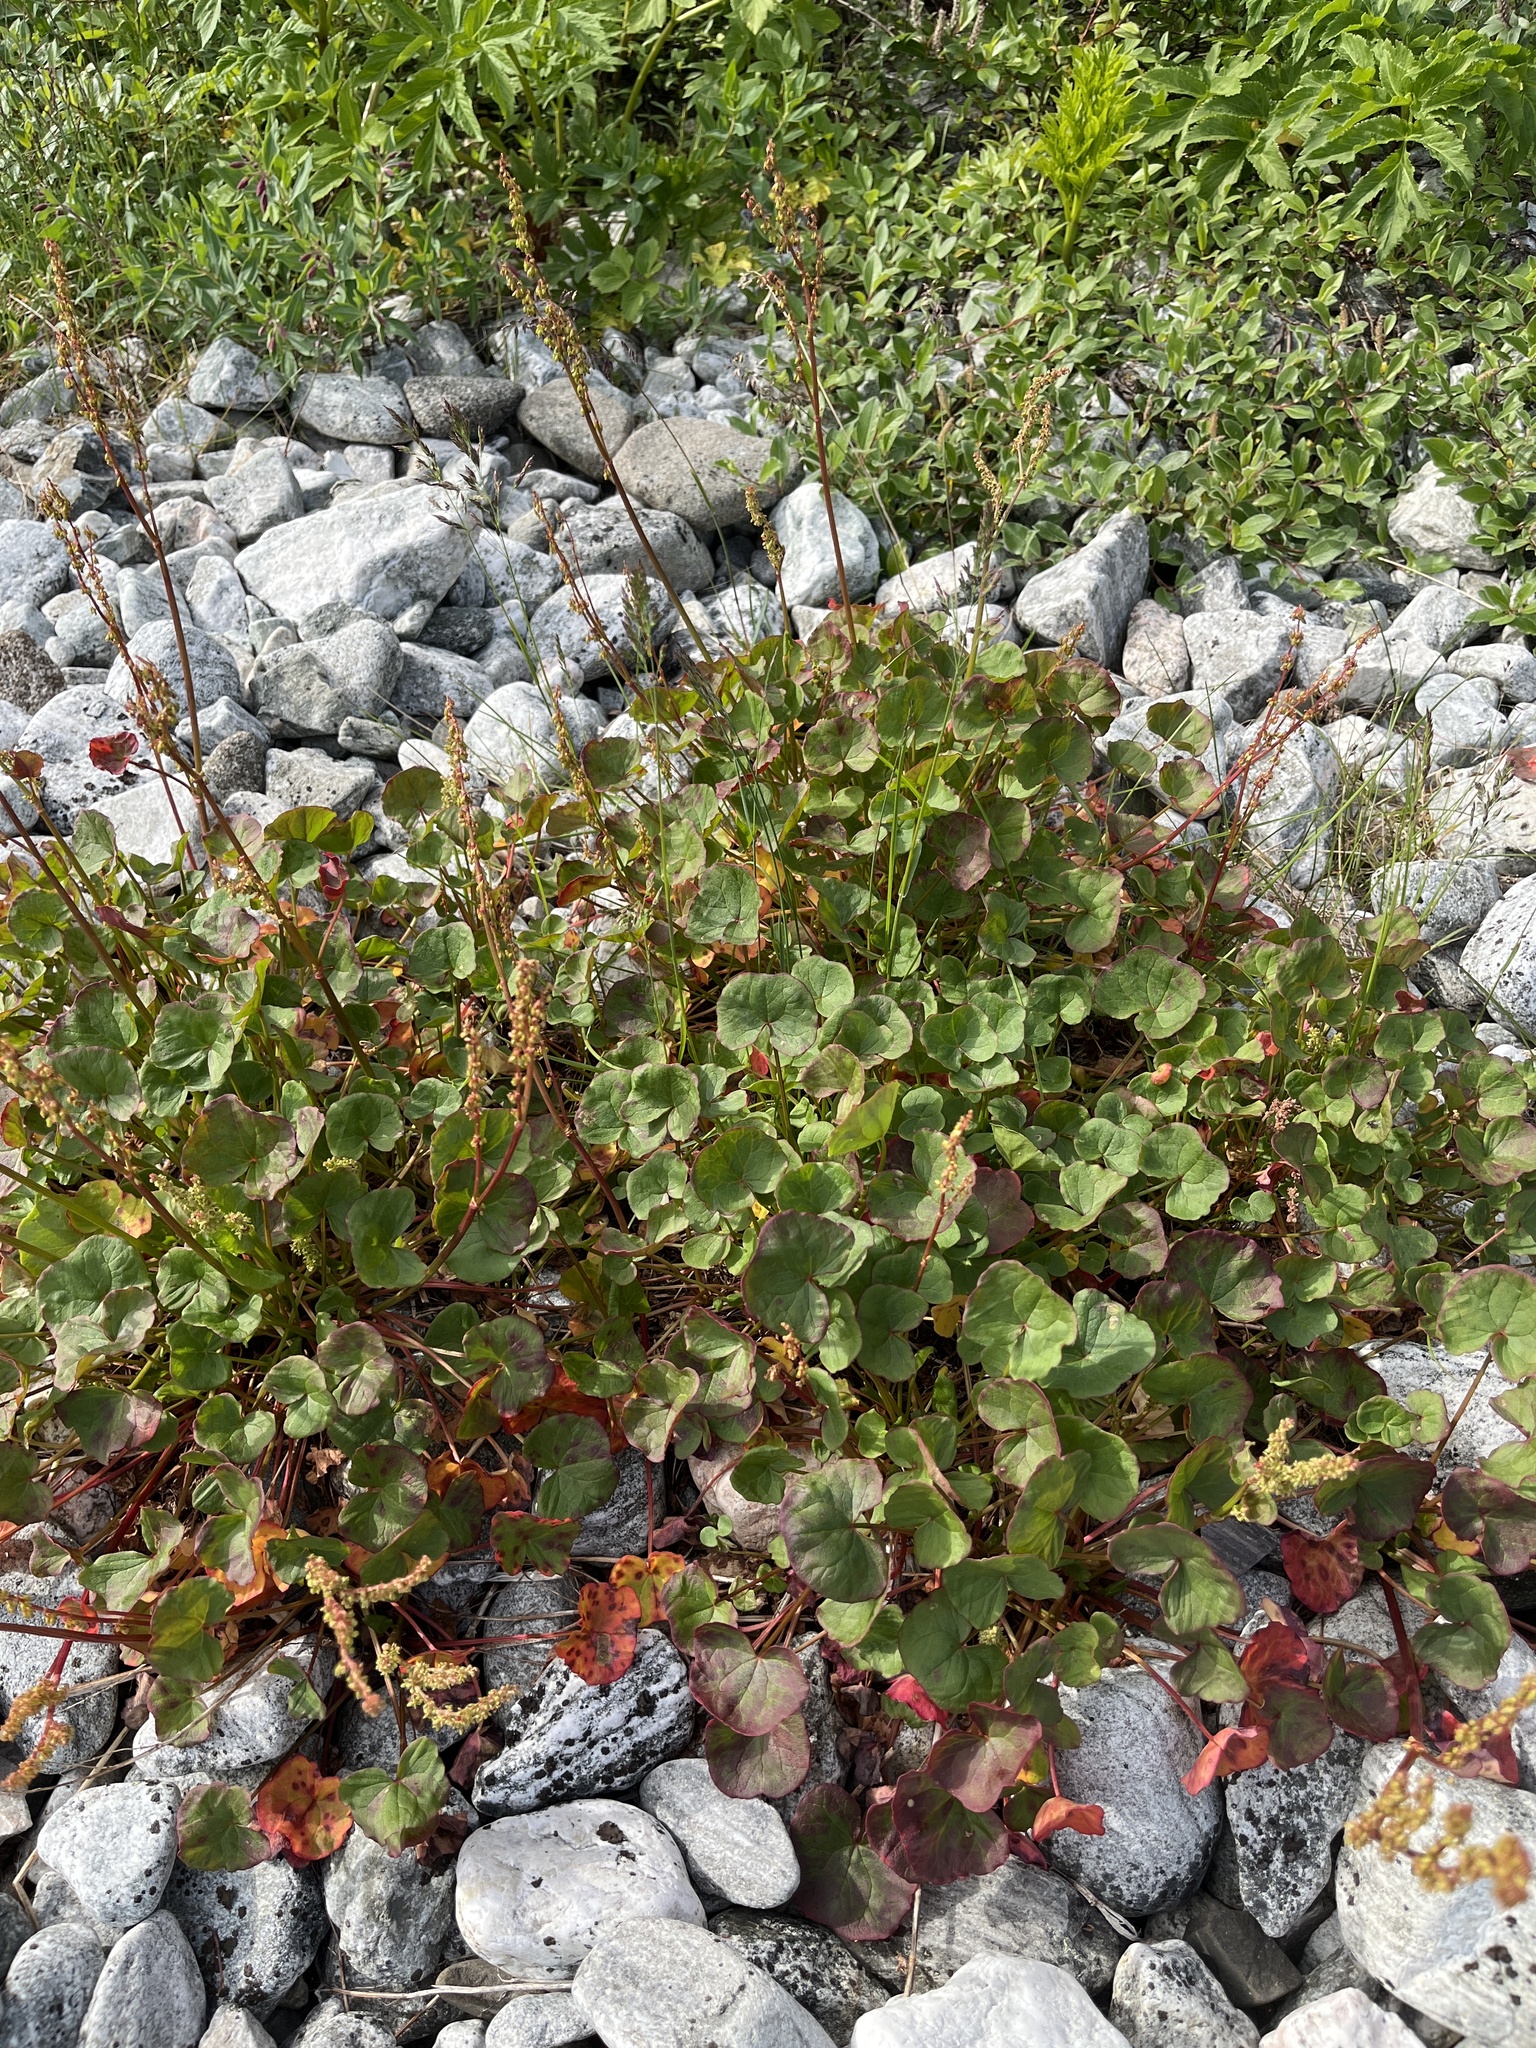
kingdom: Plantae
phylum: Tracheophyta
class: Magnoliopsida
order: Caryophyllales
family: Polygonaceae
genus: Oxyria
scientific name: Oxyria digyna
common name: Alpine mountain-sorrel
